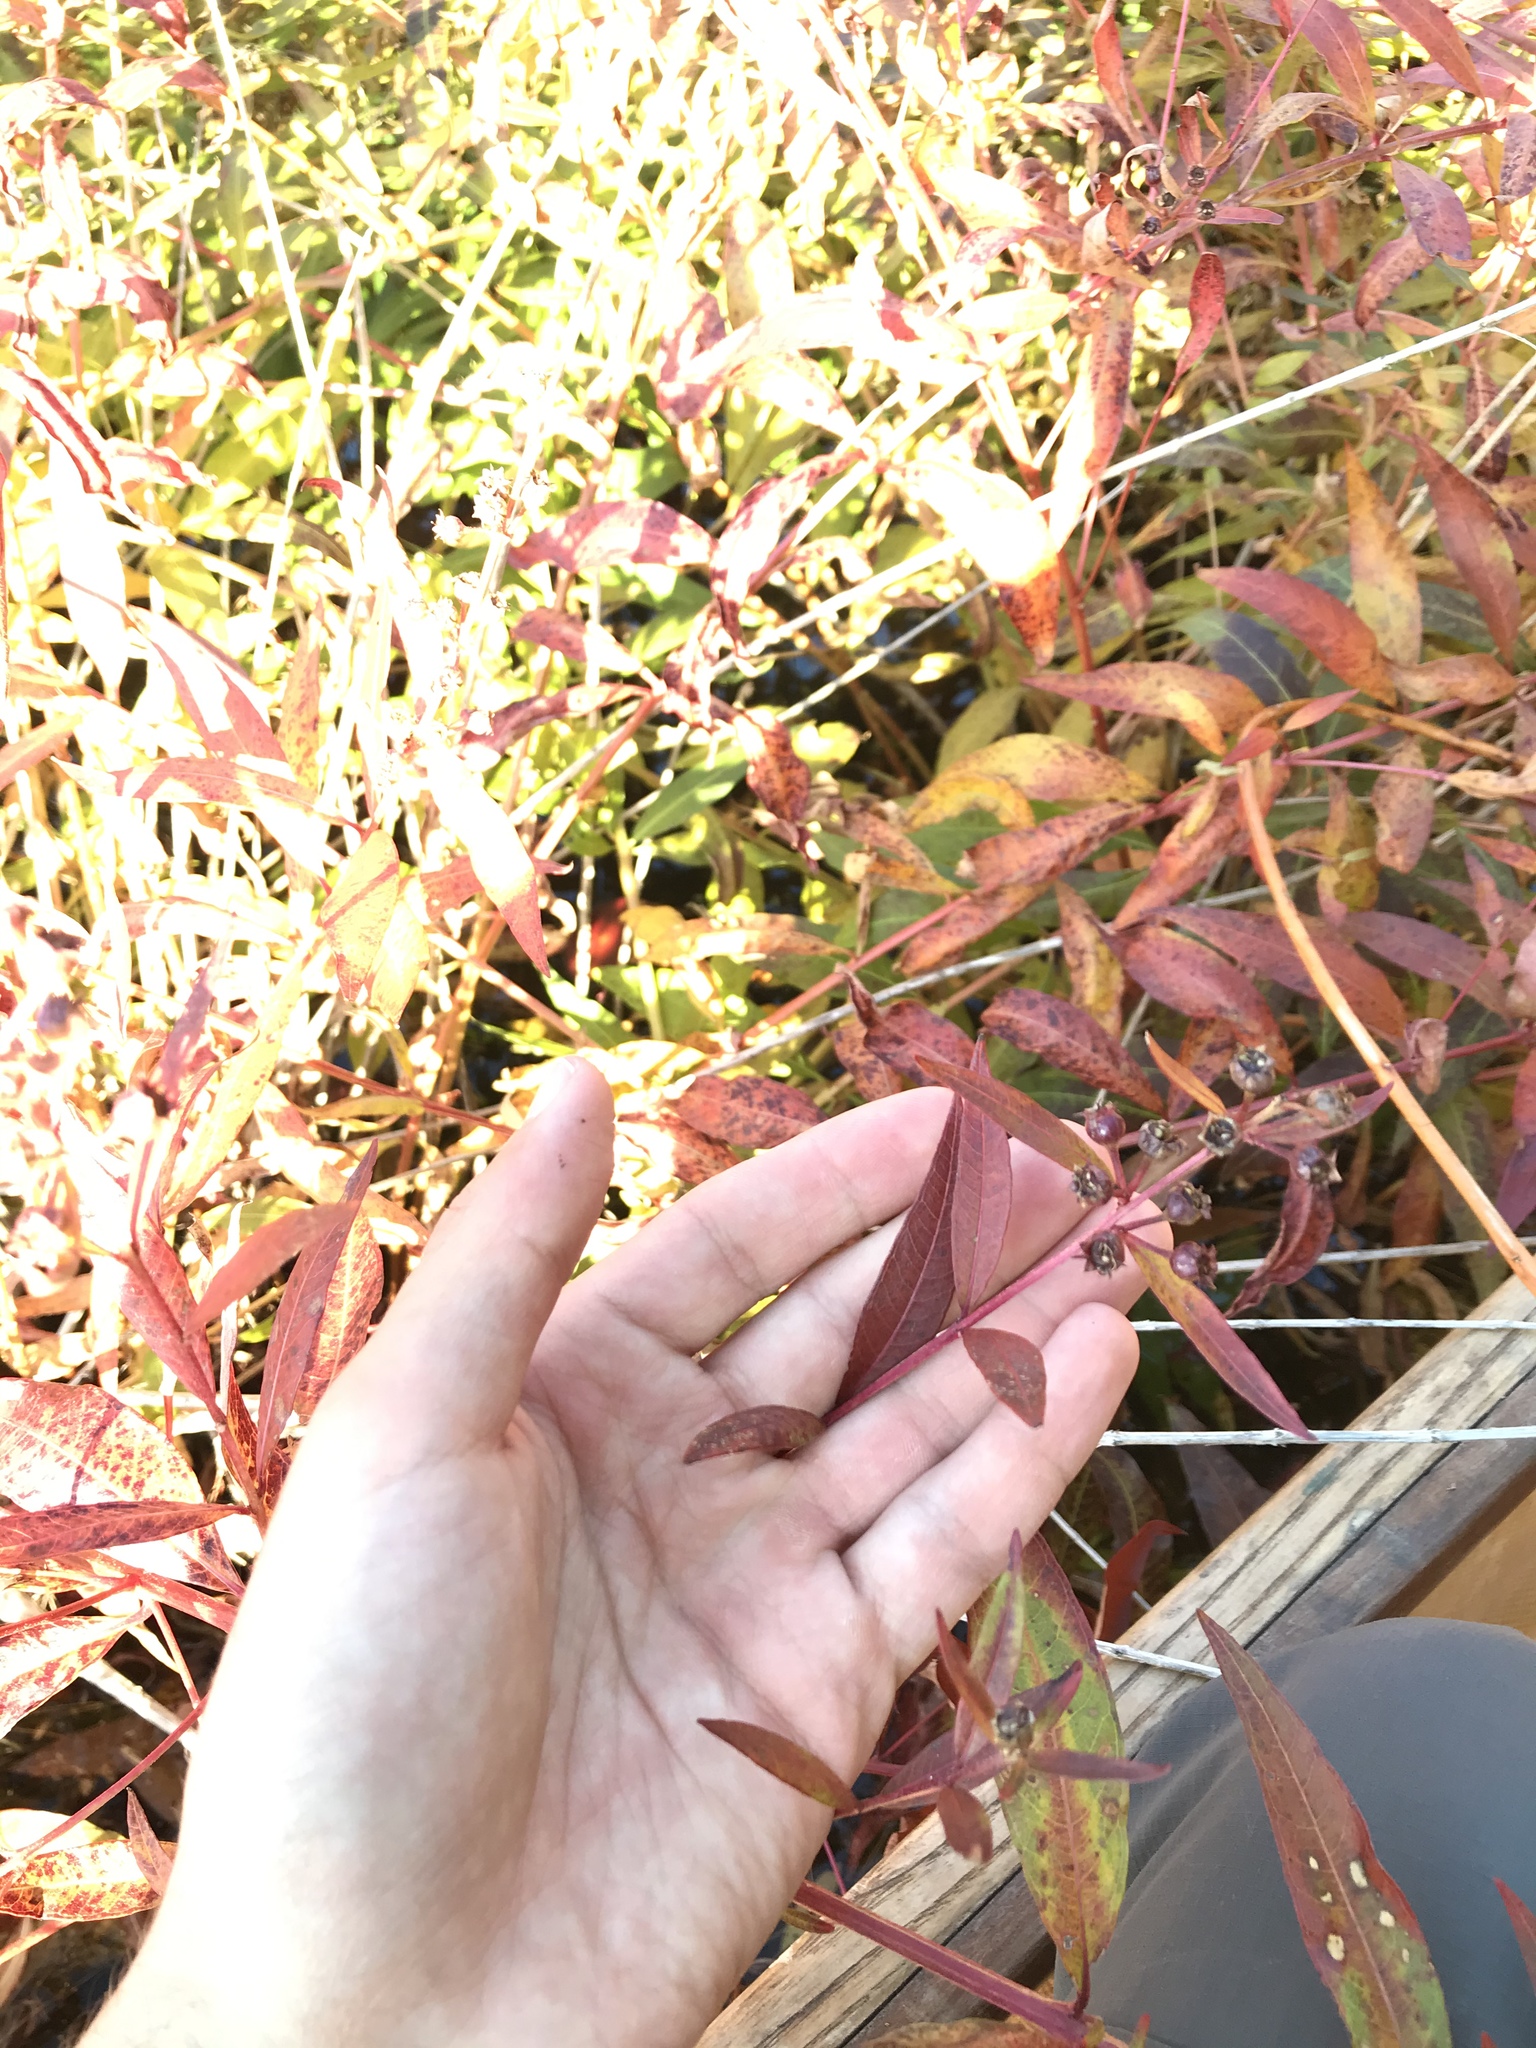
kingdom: Plantae
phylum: Tracheophyta
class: Magnoliopsida
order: Myrtales
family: Lythraceae
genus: Decodon
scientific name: Decodon verticillatus
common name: Hairy swamp loosestrife
